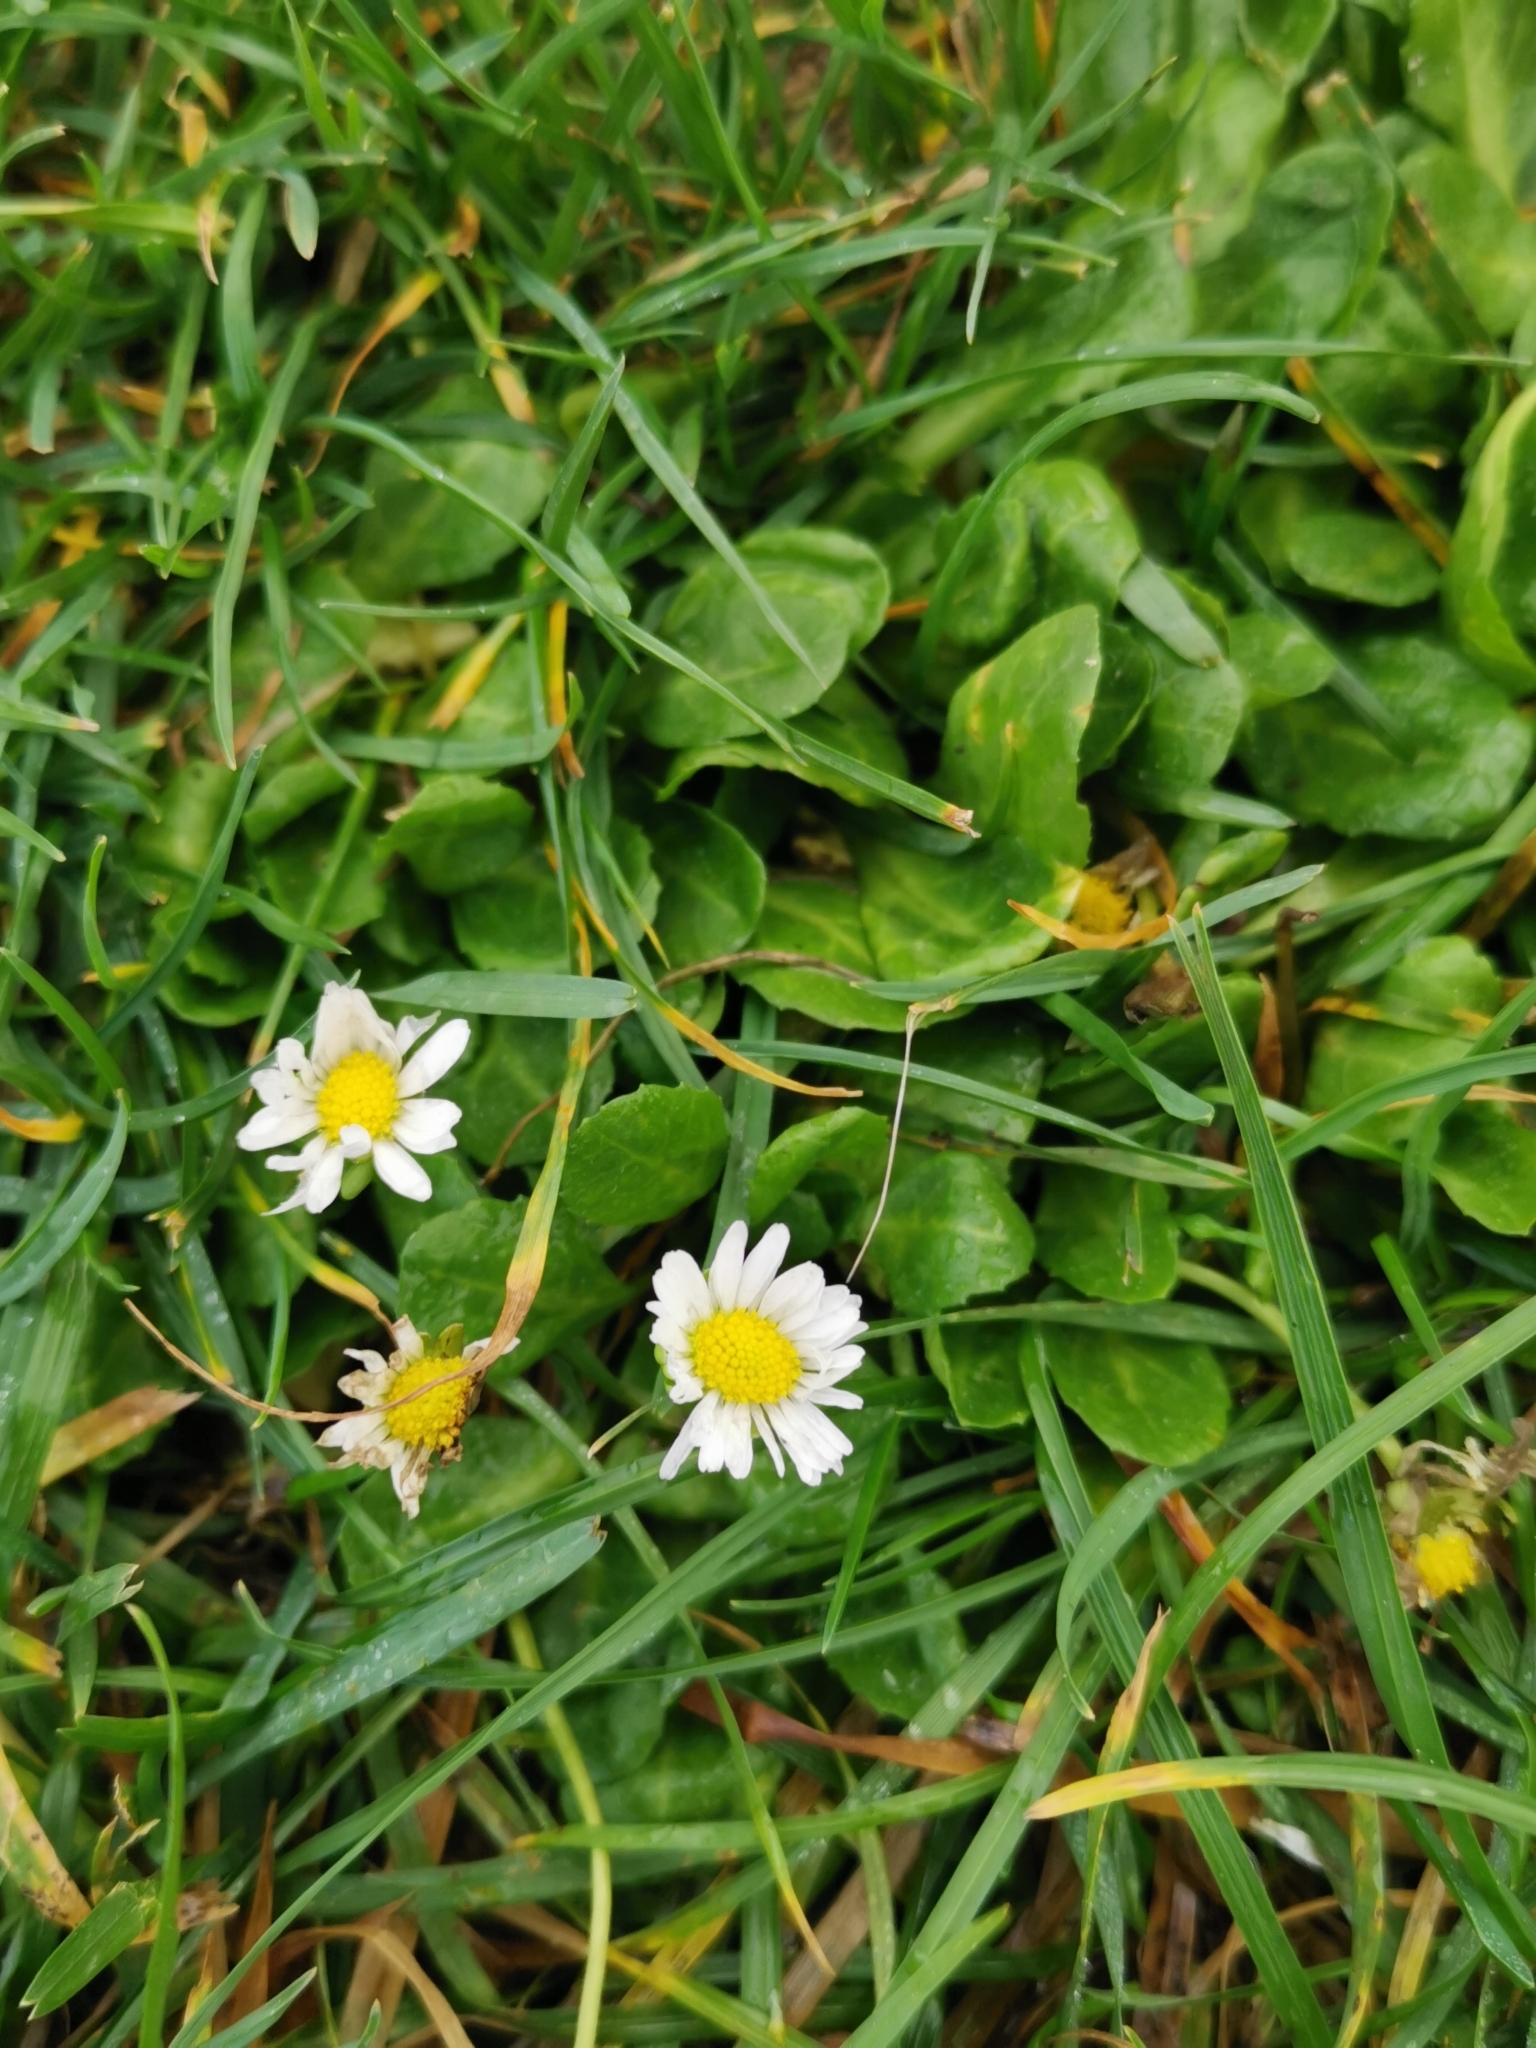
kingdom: Plantae
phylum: Tracheophyta
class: Magnoliopsida
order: Asterales
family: Asteraceae
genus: Bellis
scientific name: Bellis perennis
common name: Lawndaisy
